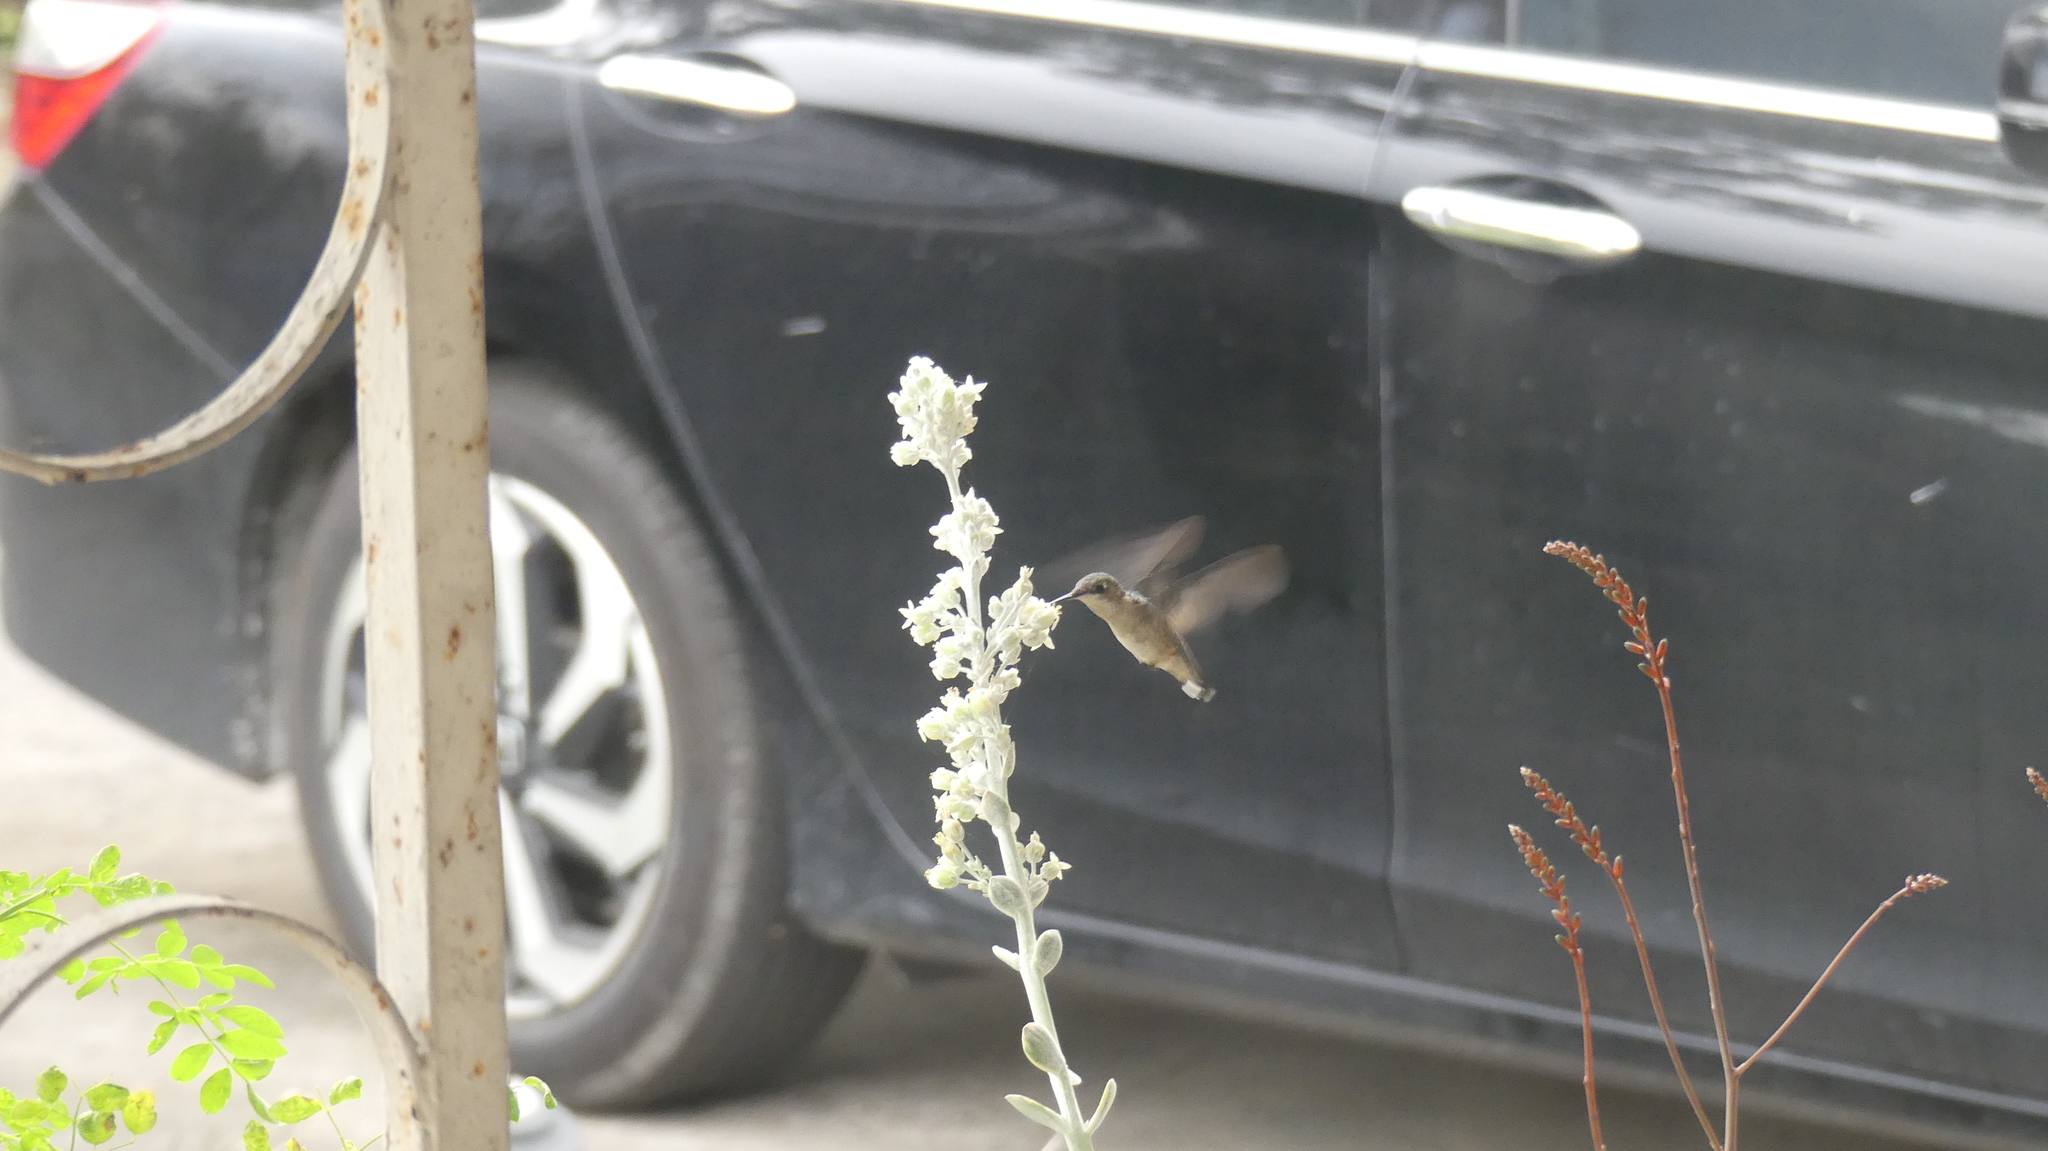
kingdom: Animalia
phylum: Chordata
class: Aves
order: Apodiformes
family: Trochilidae
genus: Archilochus
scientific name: Archilochus colubris
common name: Ruby-throated hummingbird
